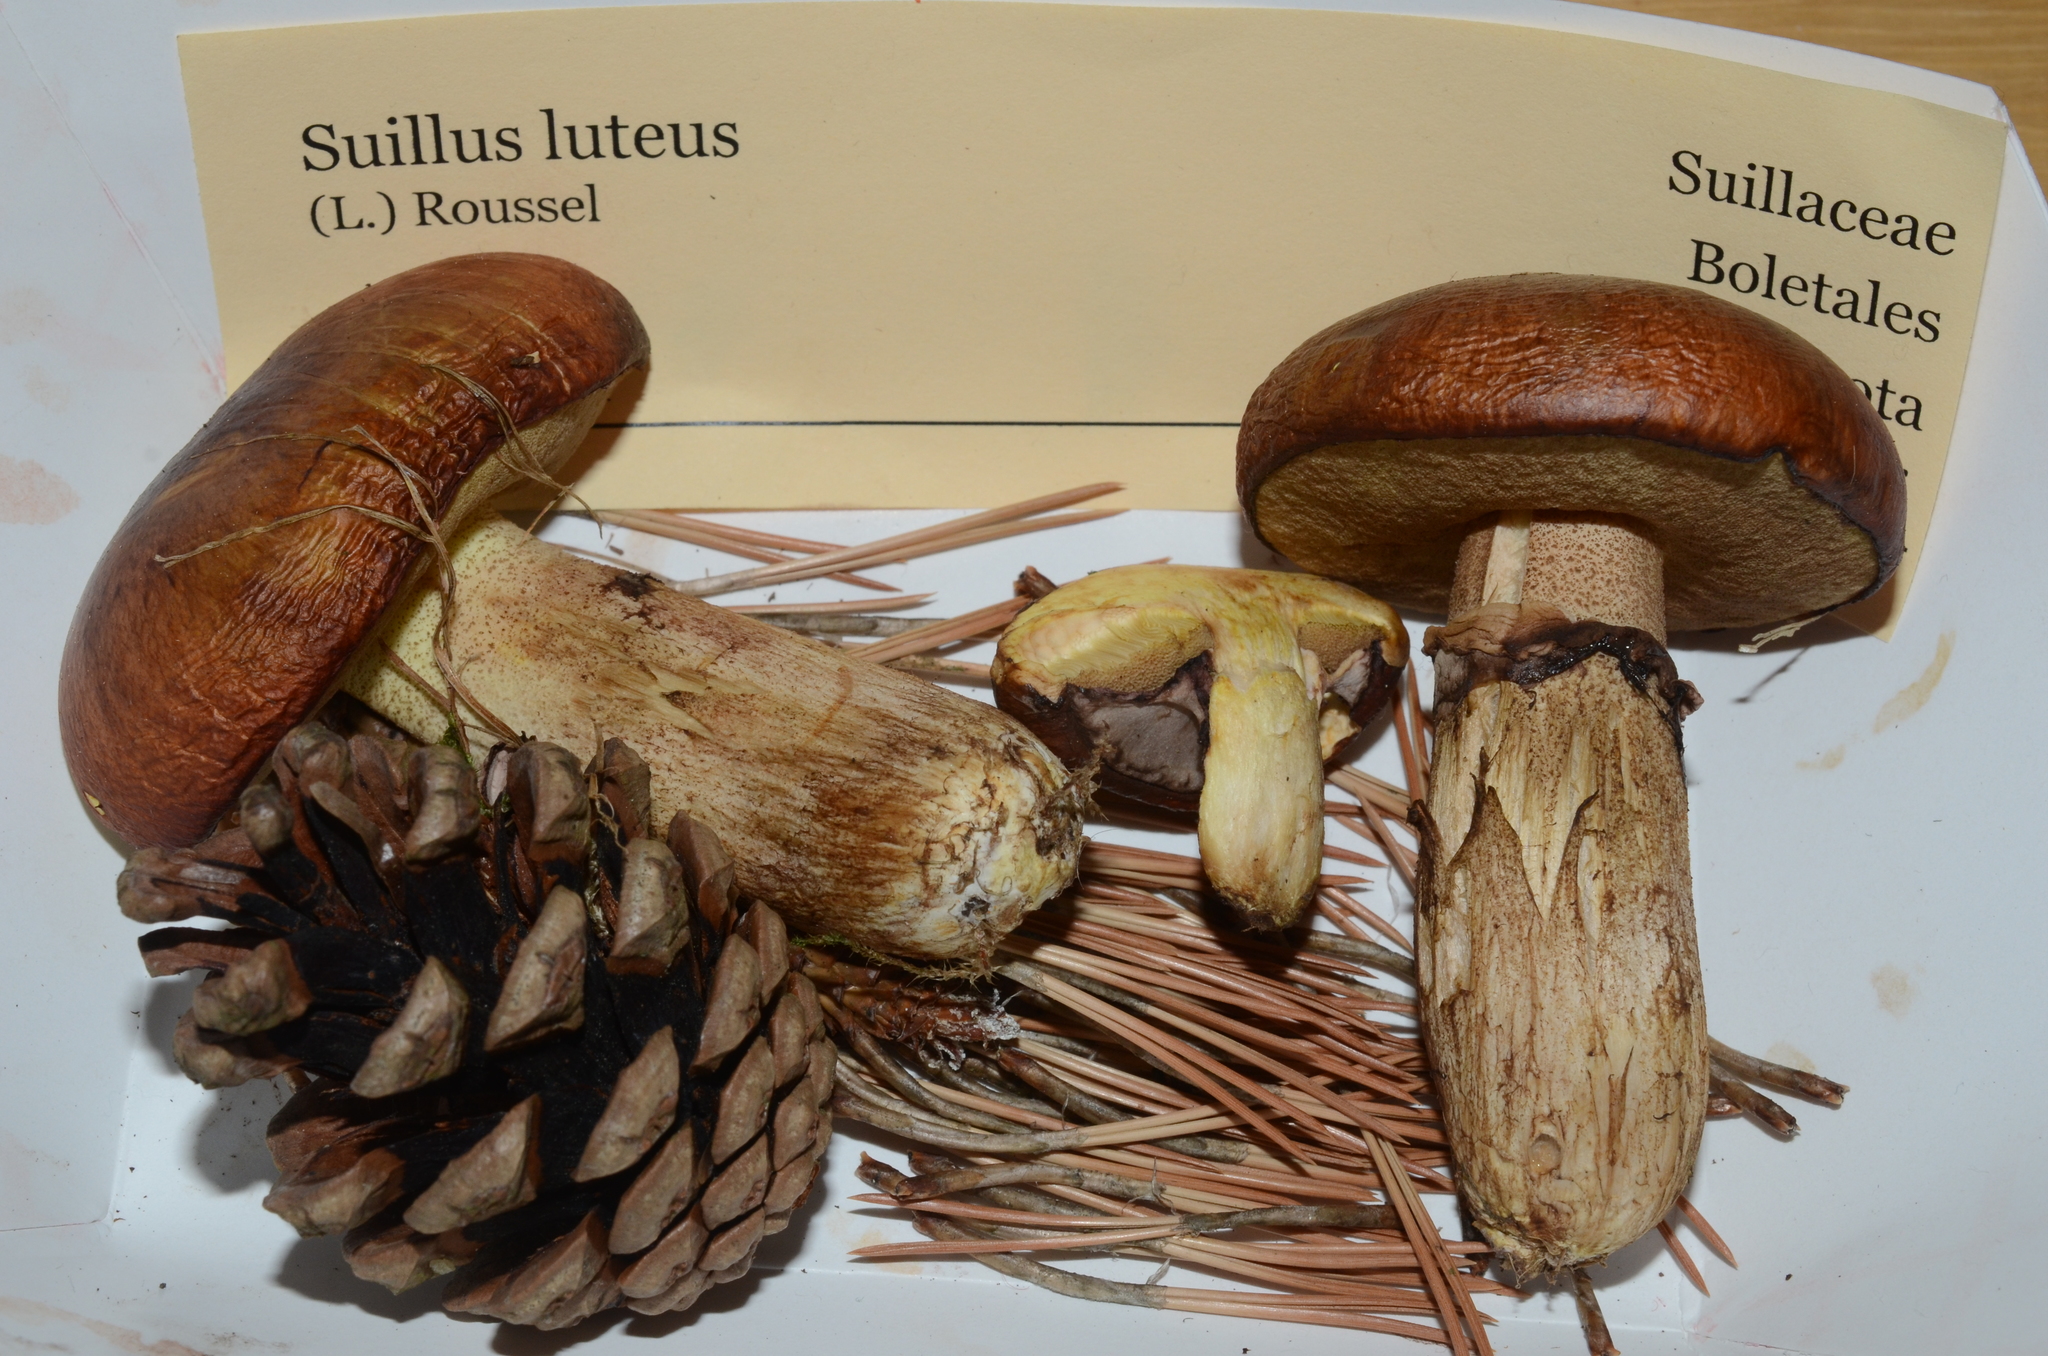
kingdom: Fungi
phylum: Basidiomycota
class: Agaricomycetes
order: Boletales
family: Suillaceae
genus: Suillus
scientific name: Suillus luteus
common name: Slippery jack
